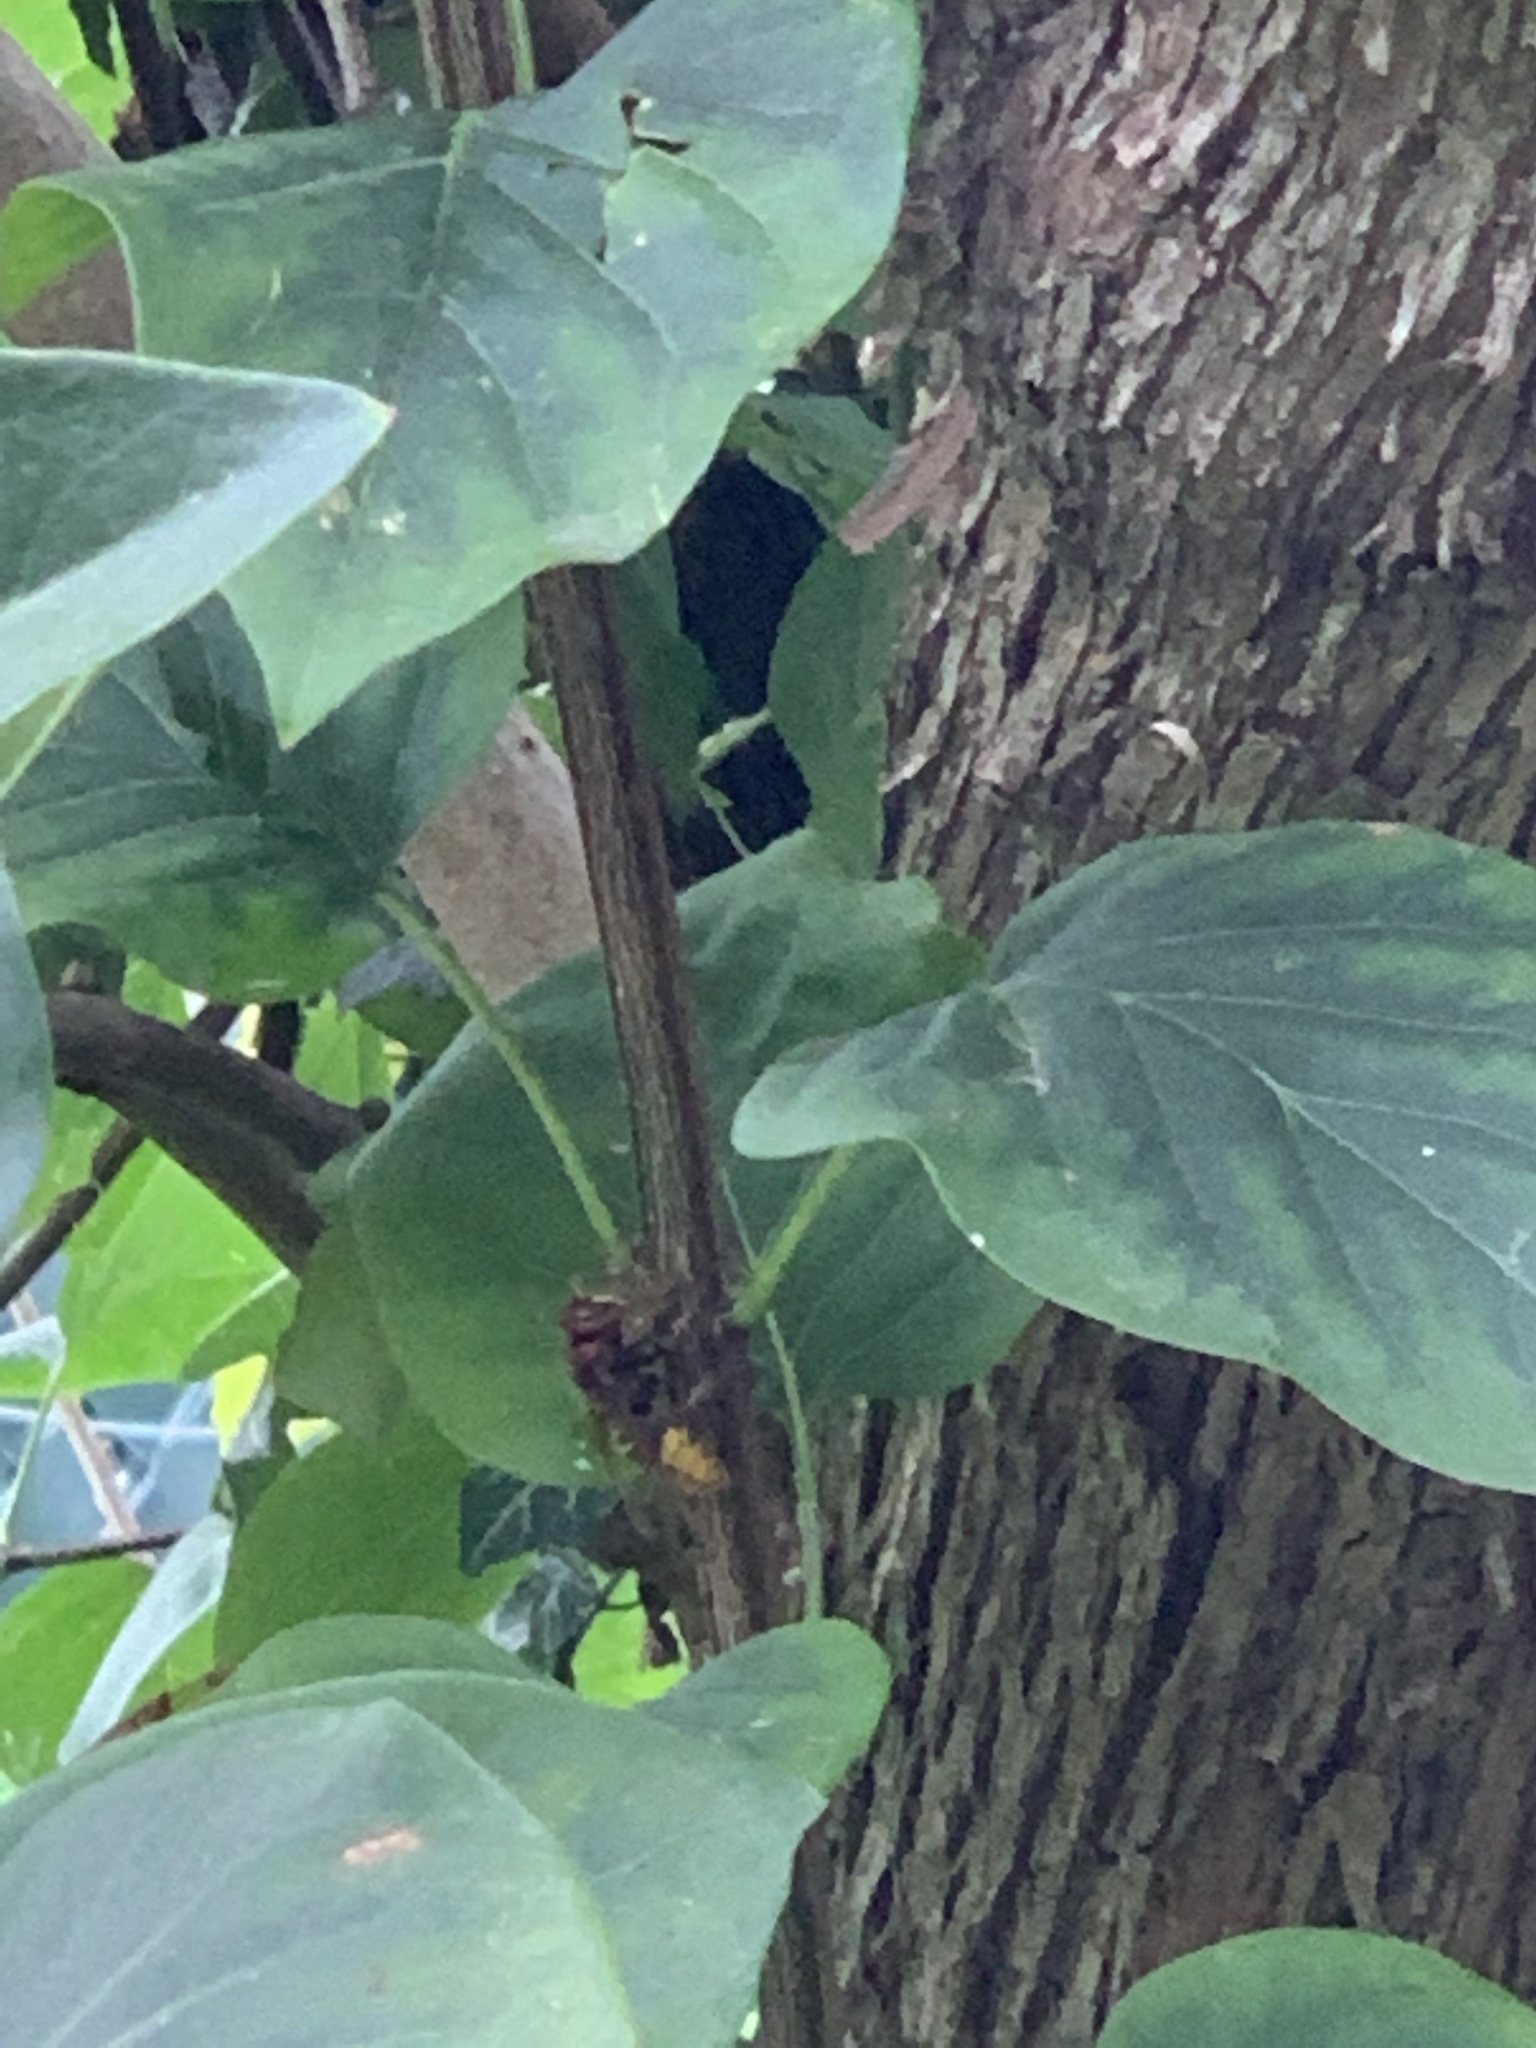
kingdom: Animalia
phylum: Arthropoda
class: Insecta
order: Hymenoptera
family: Vespidae
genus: Vespa
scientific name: Vespa crabro
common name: Hornet
